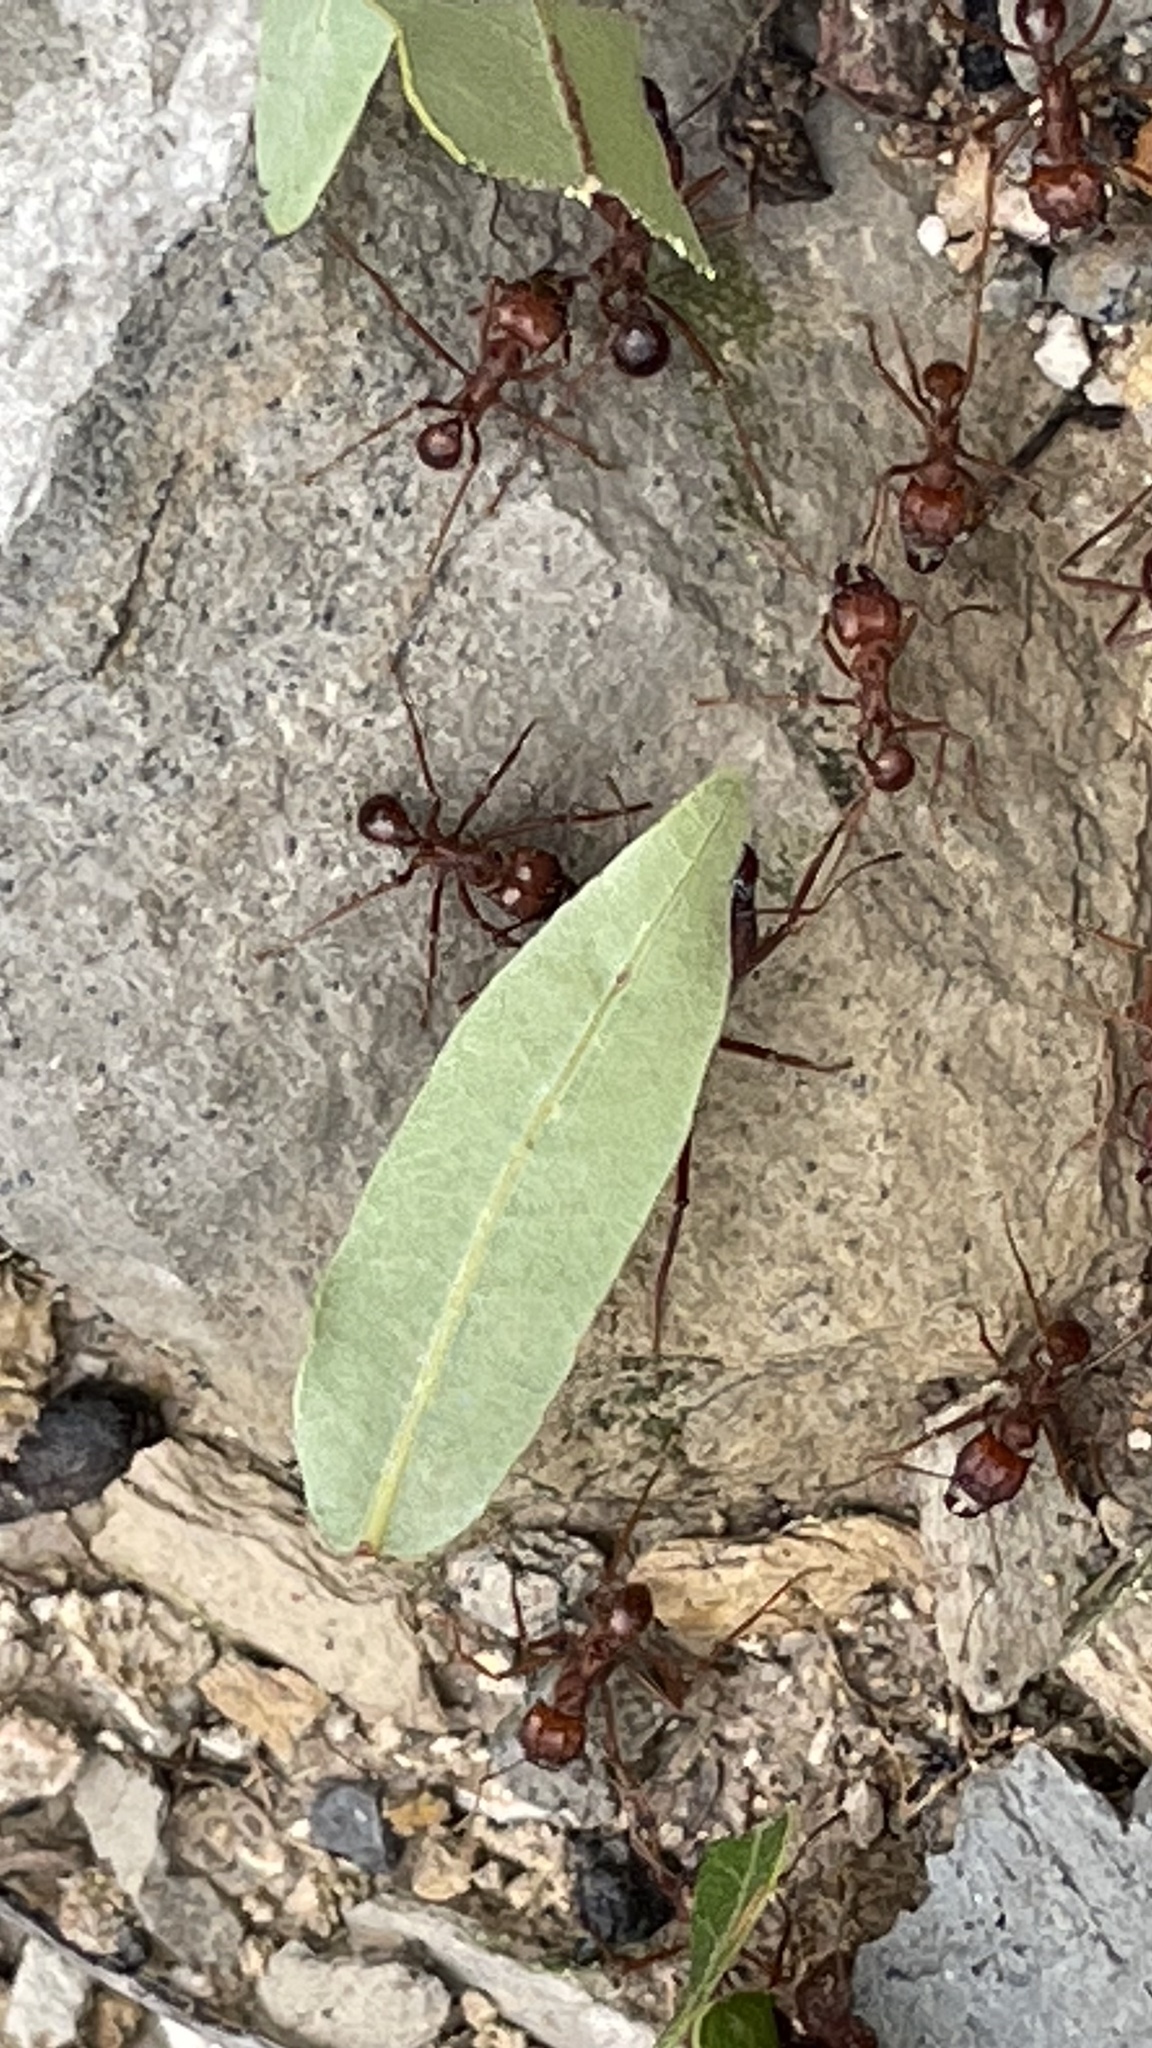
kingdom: Animalia
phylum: Arthropoda
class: Insecta
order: Hymenoptera
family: Formicidae
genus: Atta
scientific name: Atta mexicana
